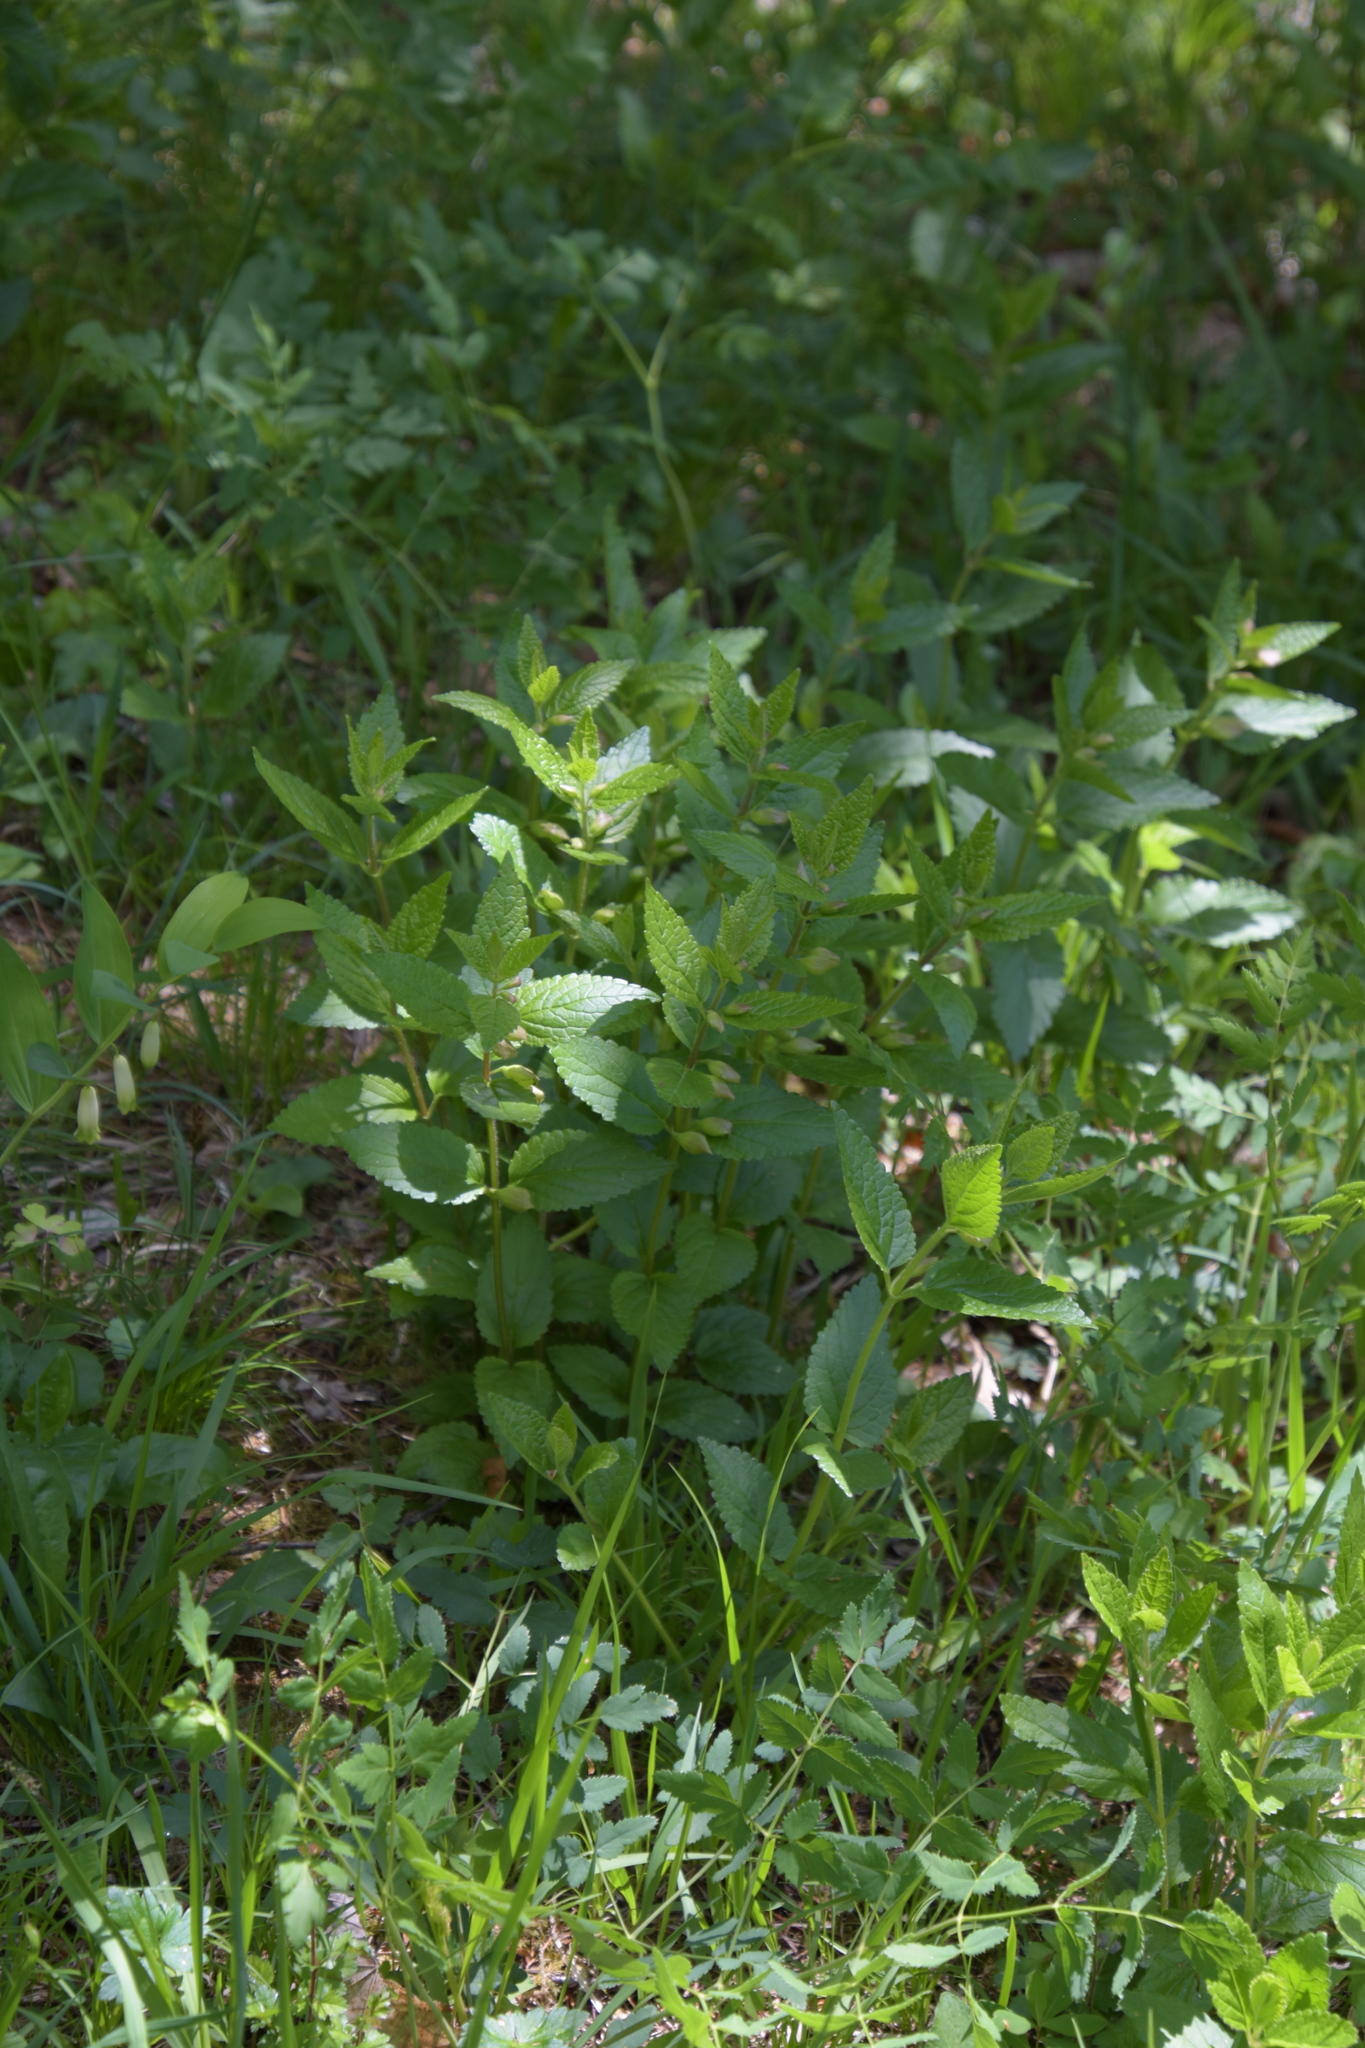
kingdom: Plantae
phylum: Tracheophyta
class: Magnoliopsida
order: Lamiales
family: Lamiaceae
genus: Melittis
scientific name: Melittis melissophyllum
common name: Bastard balm
